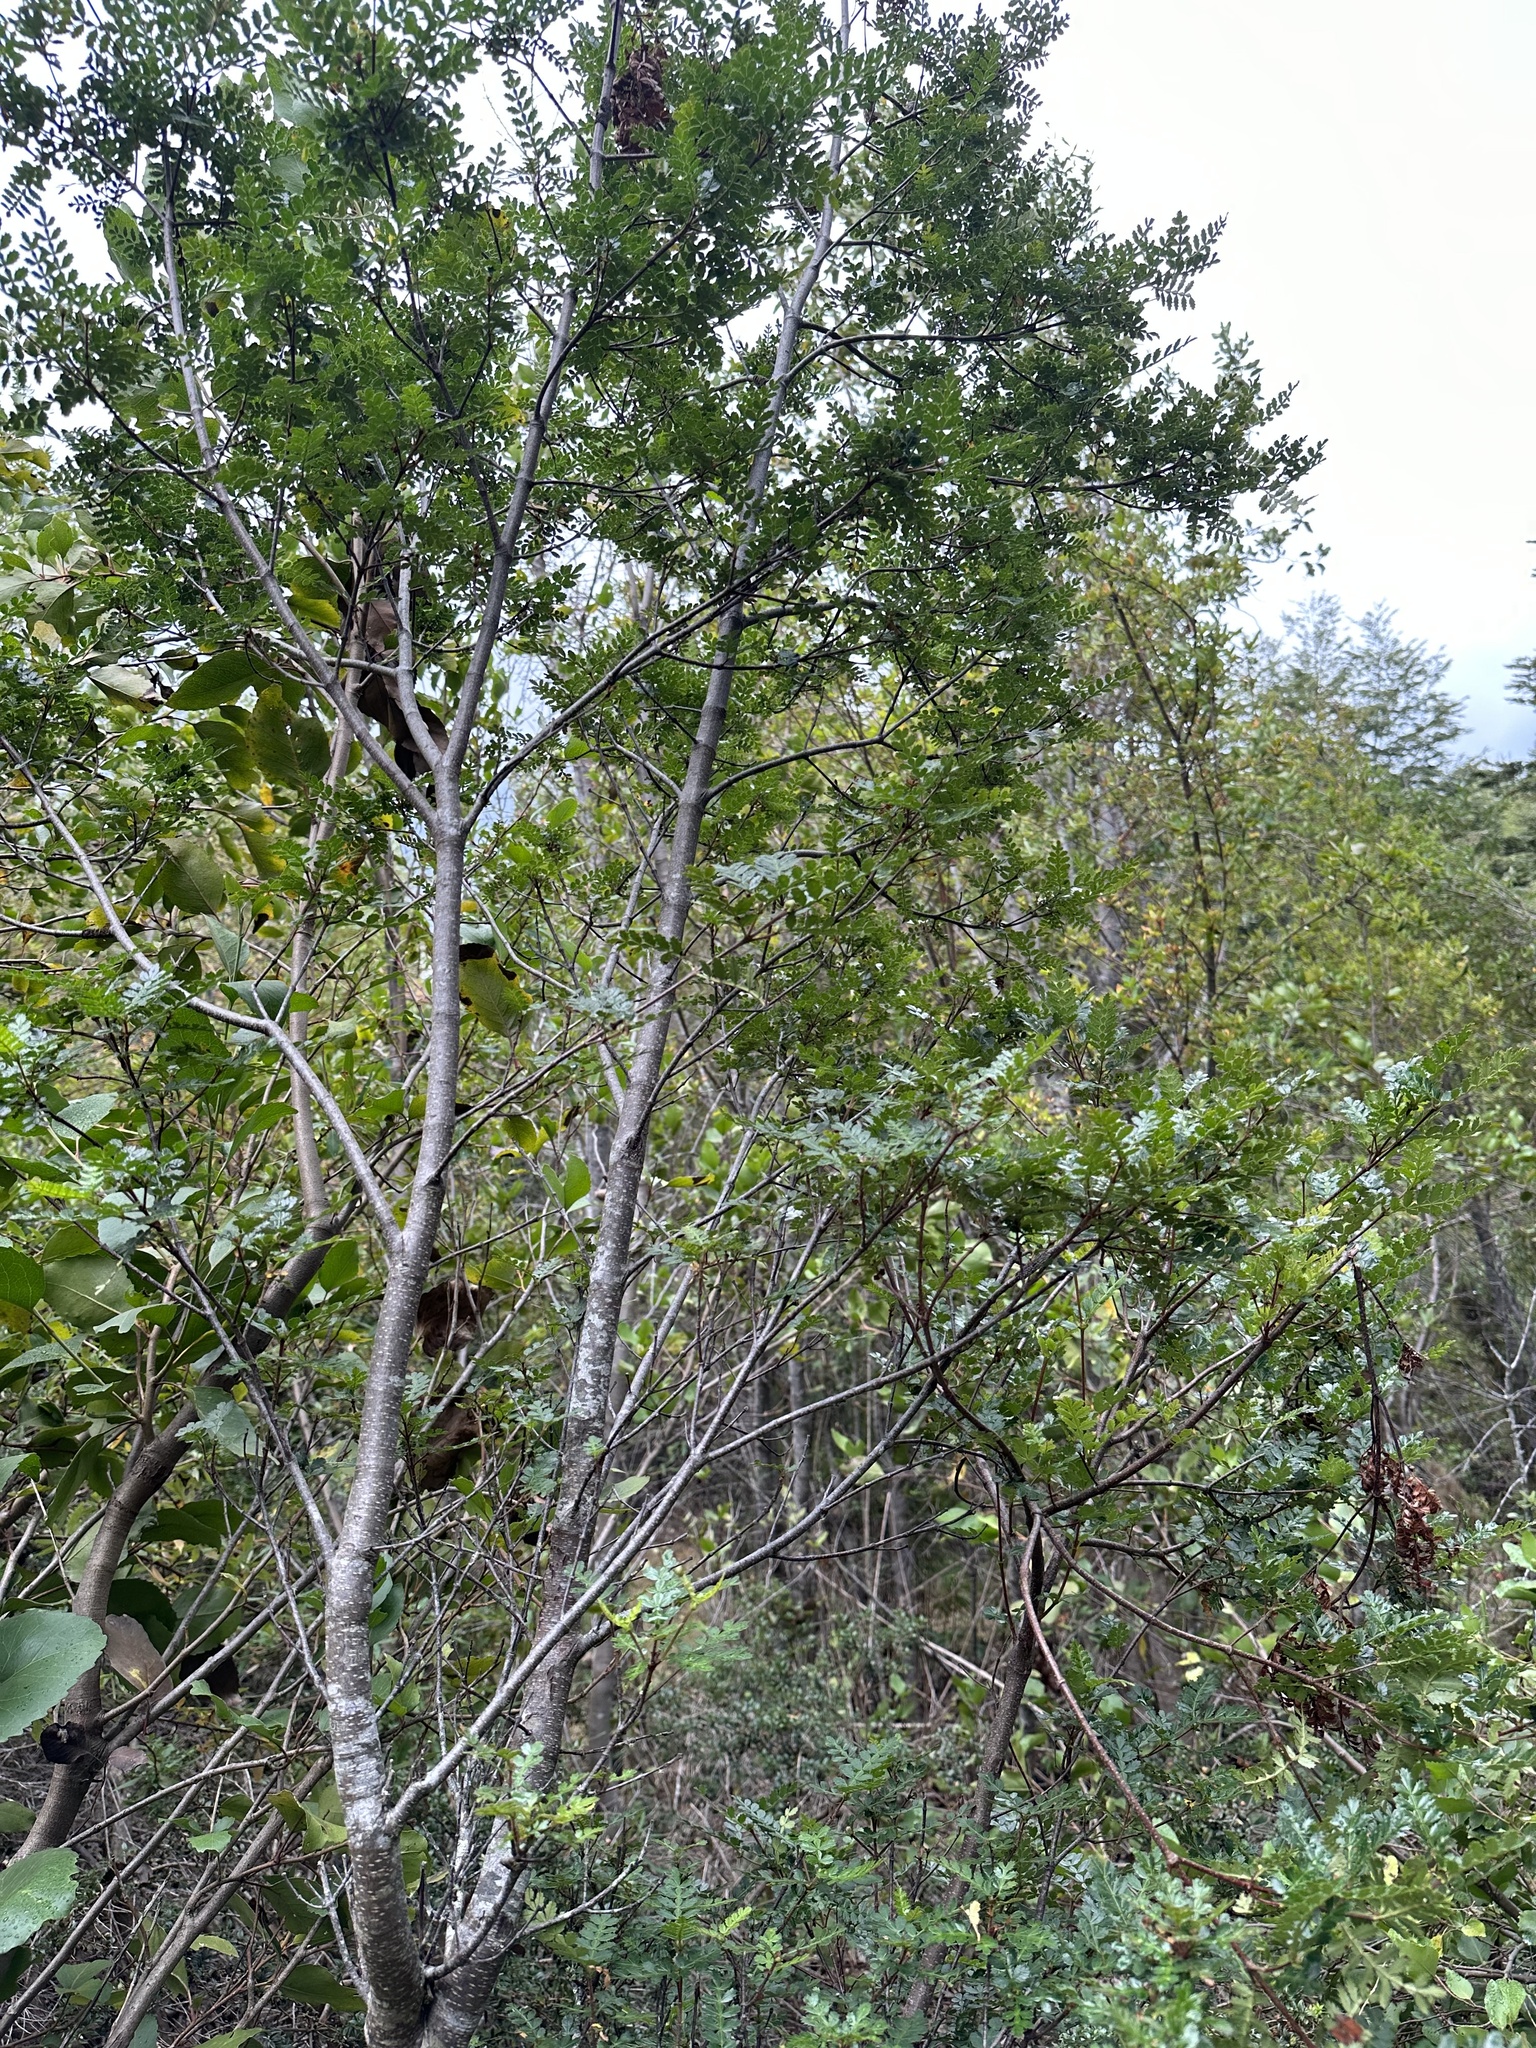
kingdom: Plantae
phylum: Tracheophyta
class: Magnoliopsida
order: Oxalidales
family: Cunoniaceae
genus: Weinmannia
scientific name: Weinmannia trichosperma
